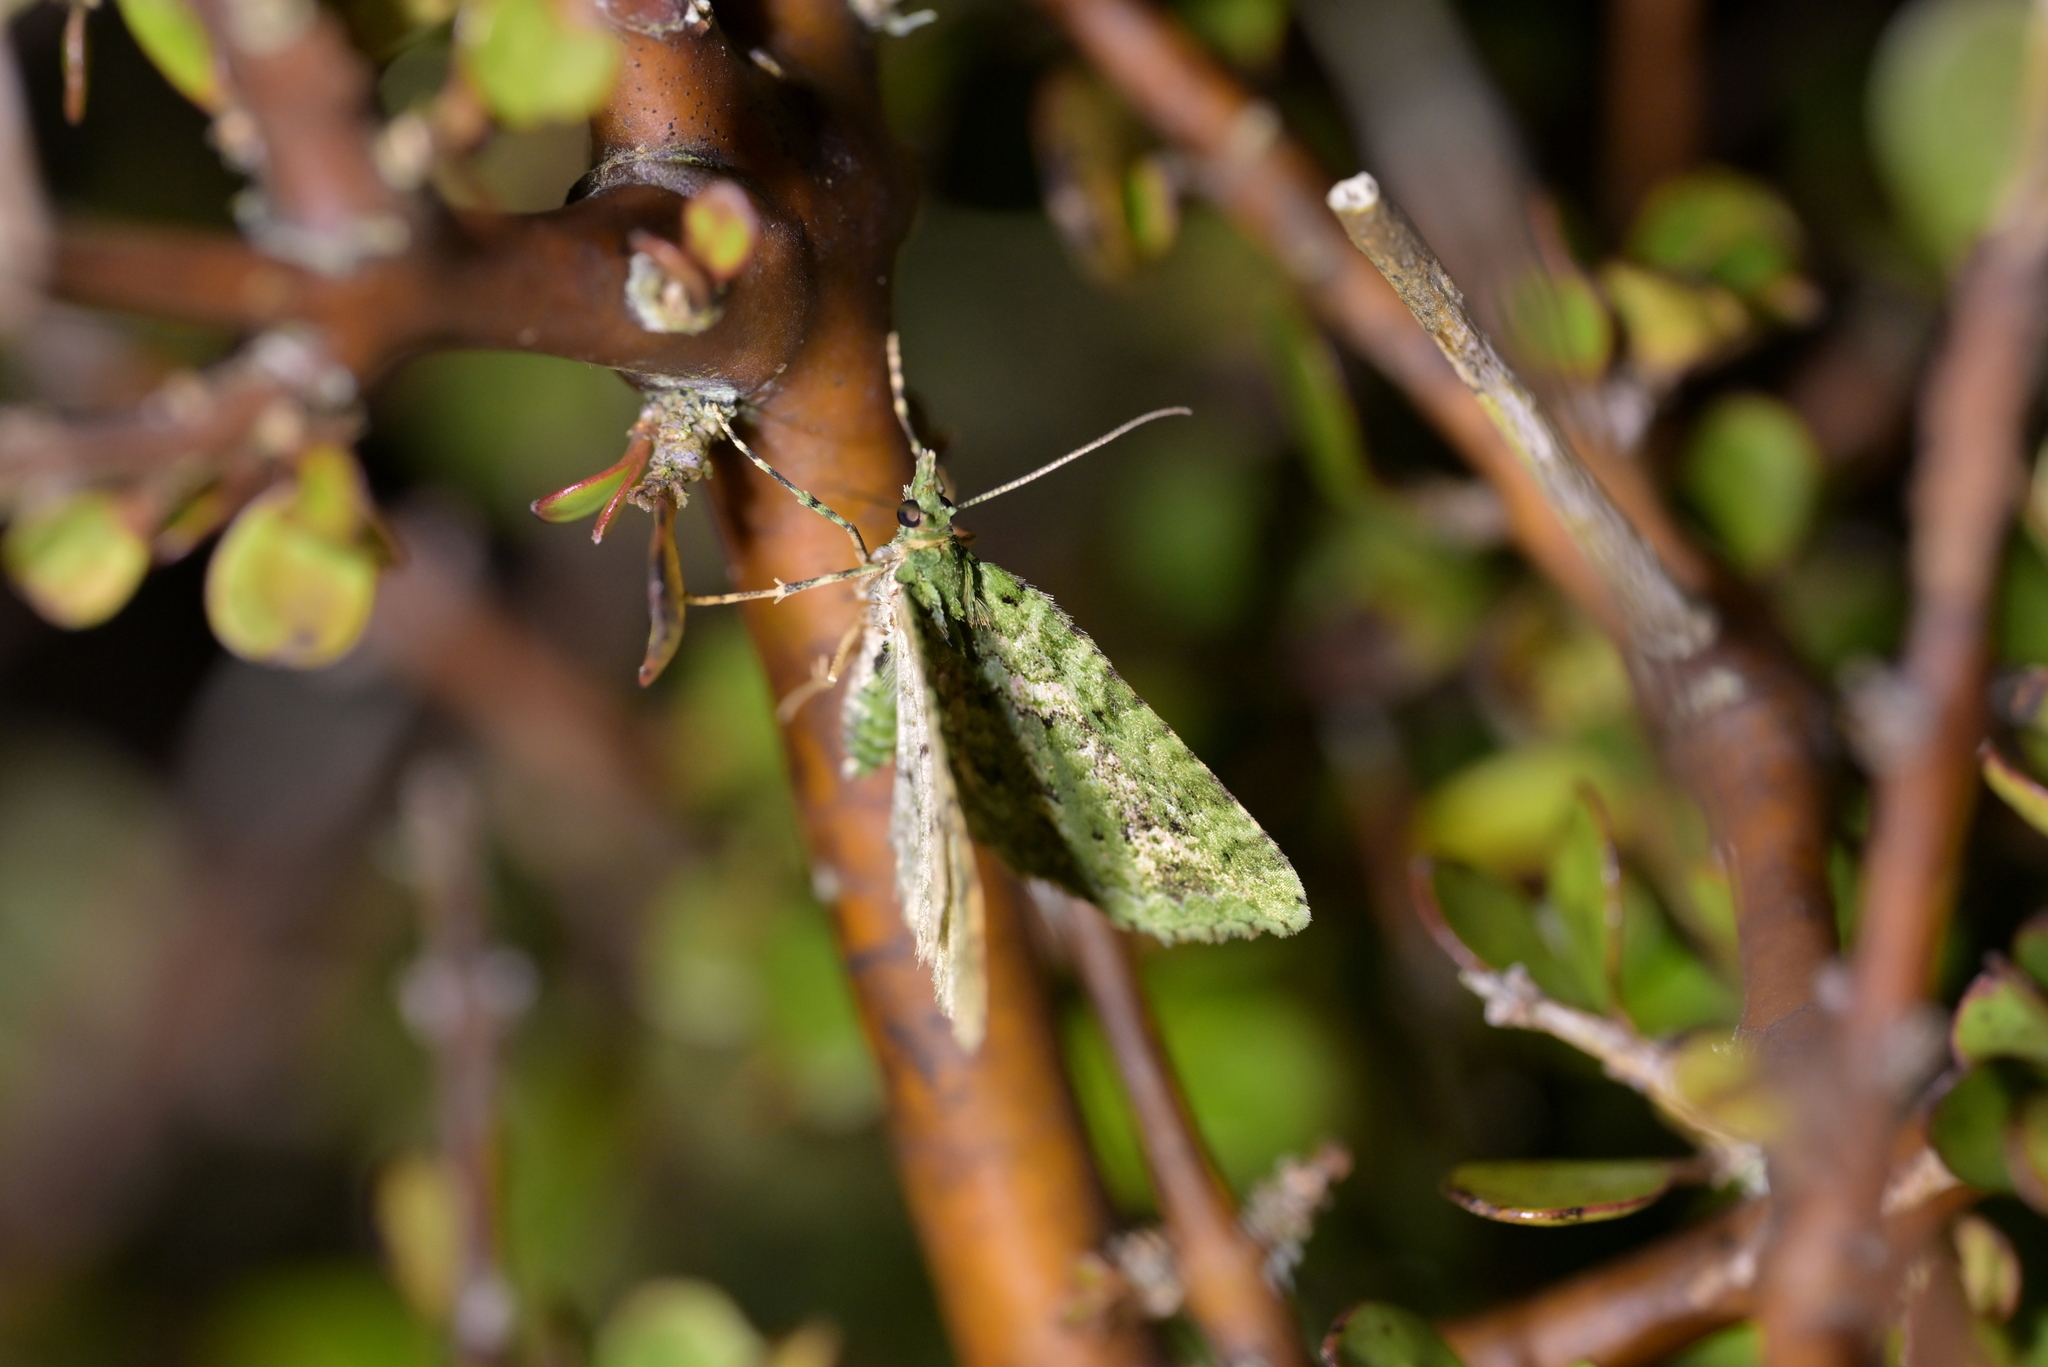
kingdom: Animalia
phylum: Arthropoda
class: Insecta
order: Lepidoptera
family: Geometridae
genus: Pasiphila
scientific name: Pasiphila muscosata
